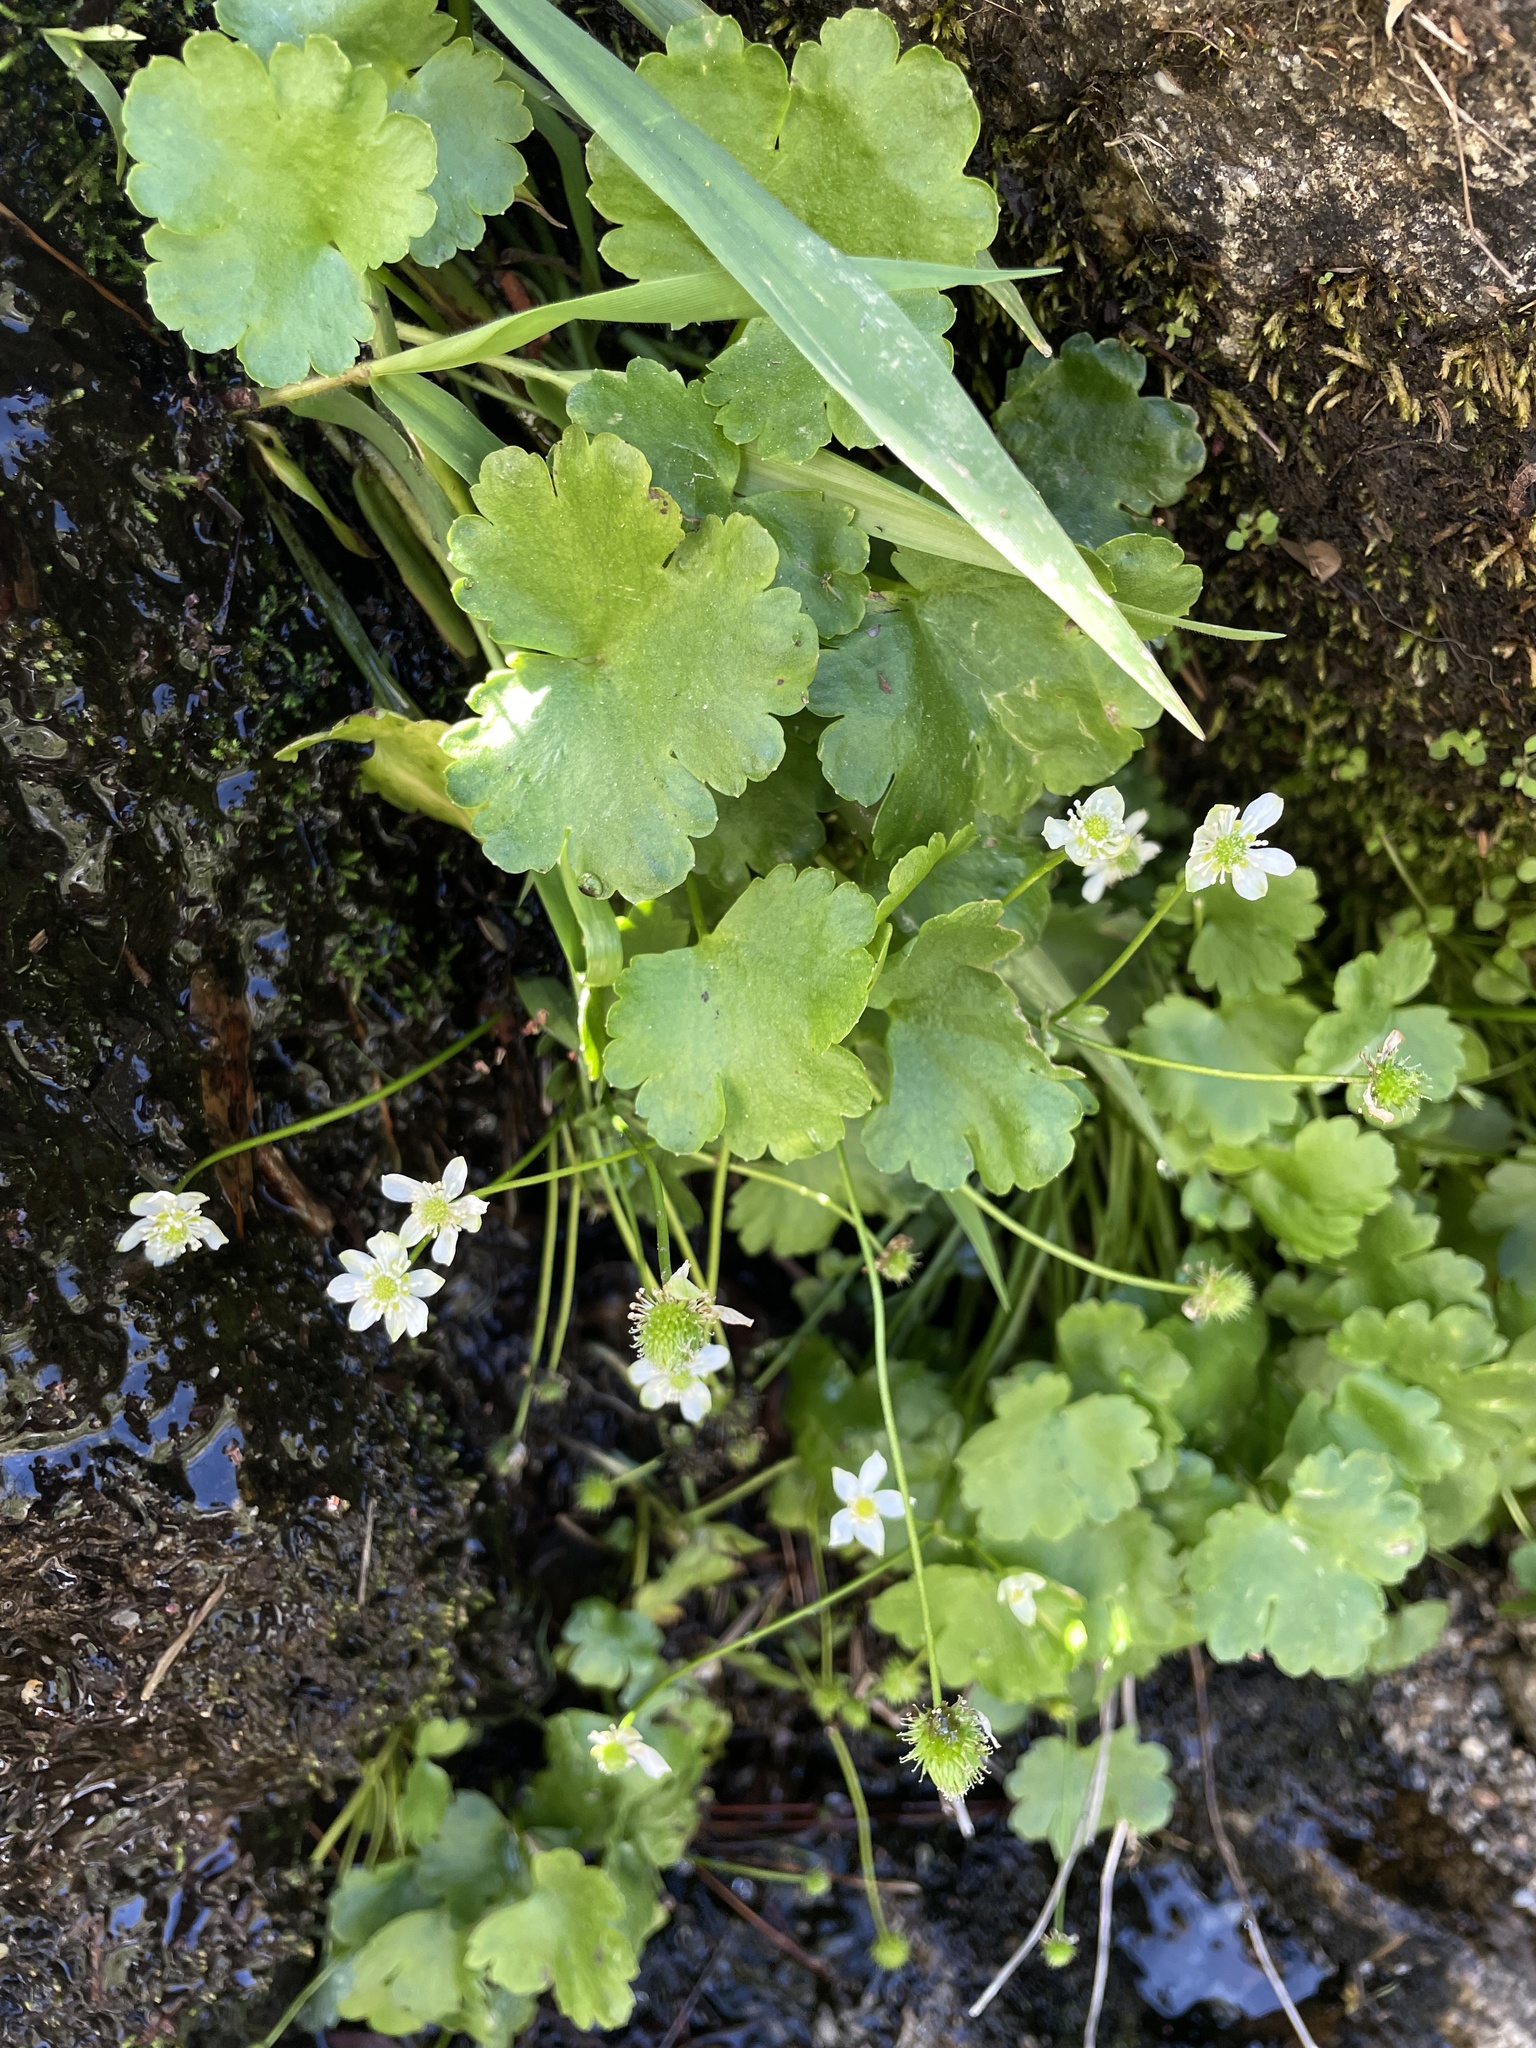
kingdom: Plantae
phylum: Tracheophyta
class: Magnoliopsida
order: Ranunculales
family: Ranunculaceae
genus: Kumlienia
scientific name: Kumlienia hystricula
